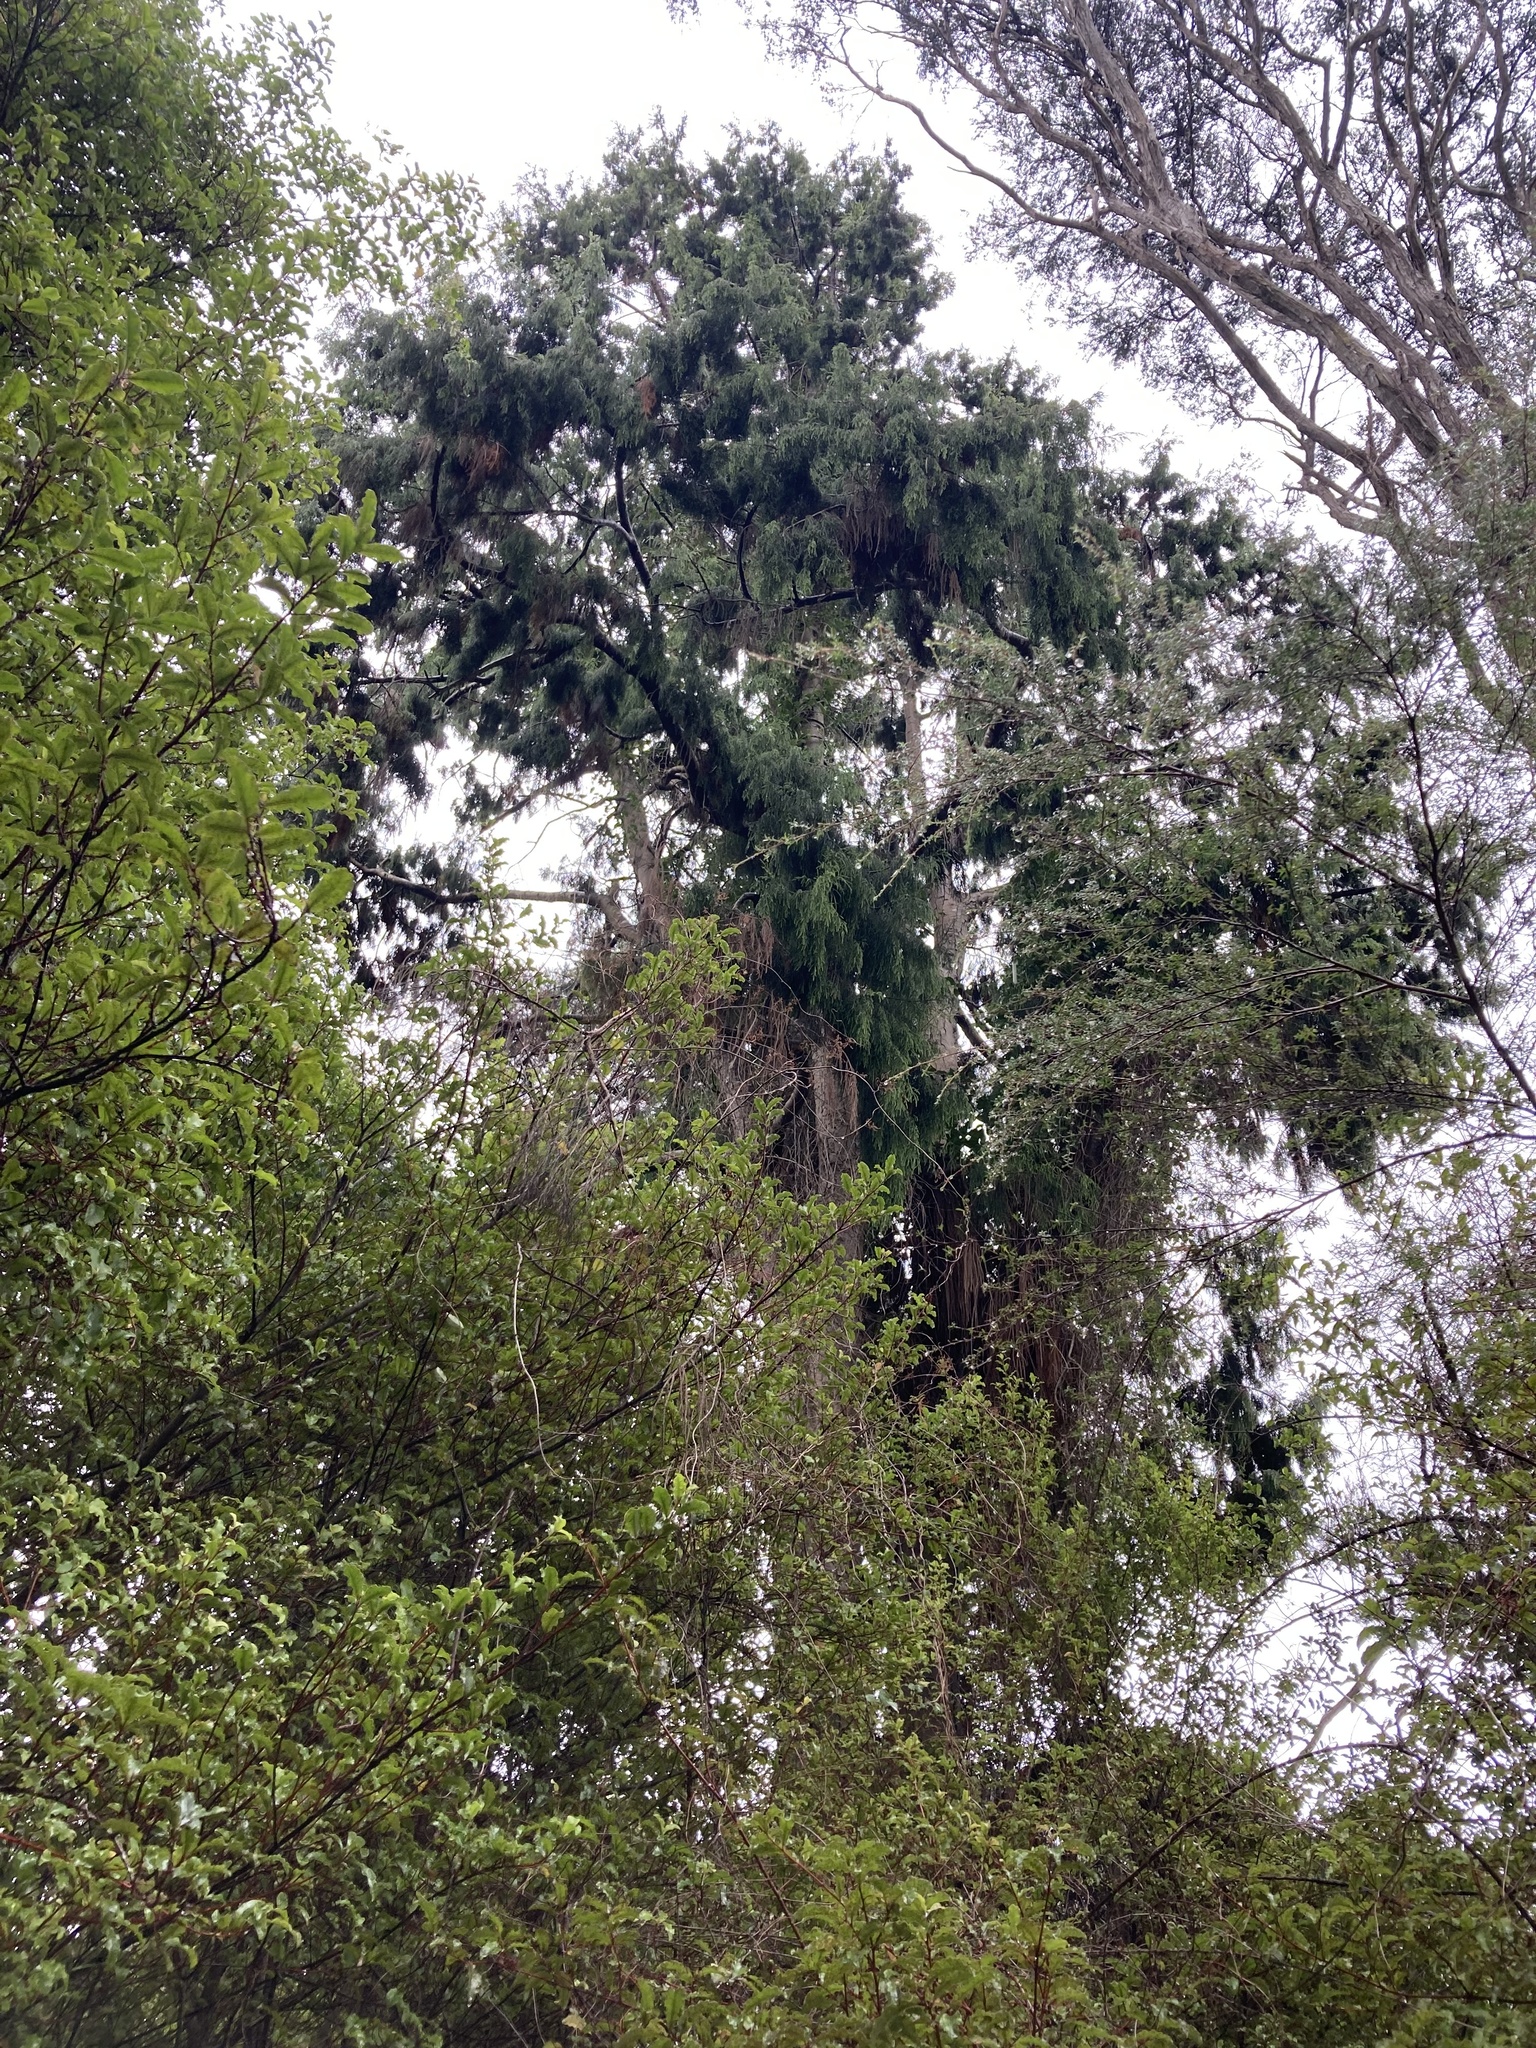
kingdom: Plantae
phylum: Tracheophyta
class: Pinopsida
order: Pinales
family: Podocarpaceae
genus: Dacrydium
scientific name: Dacrydium cupressinum
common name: Red pine
